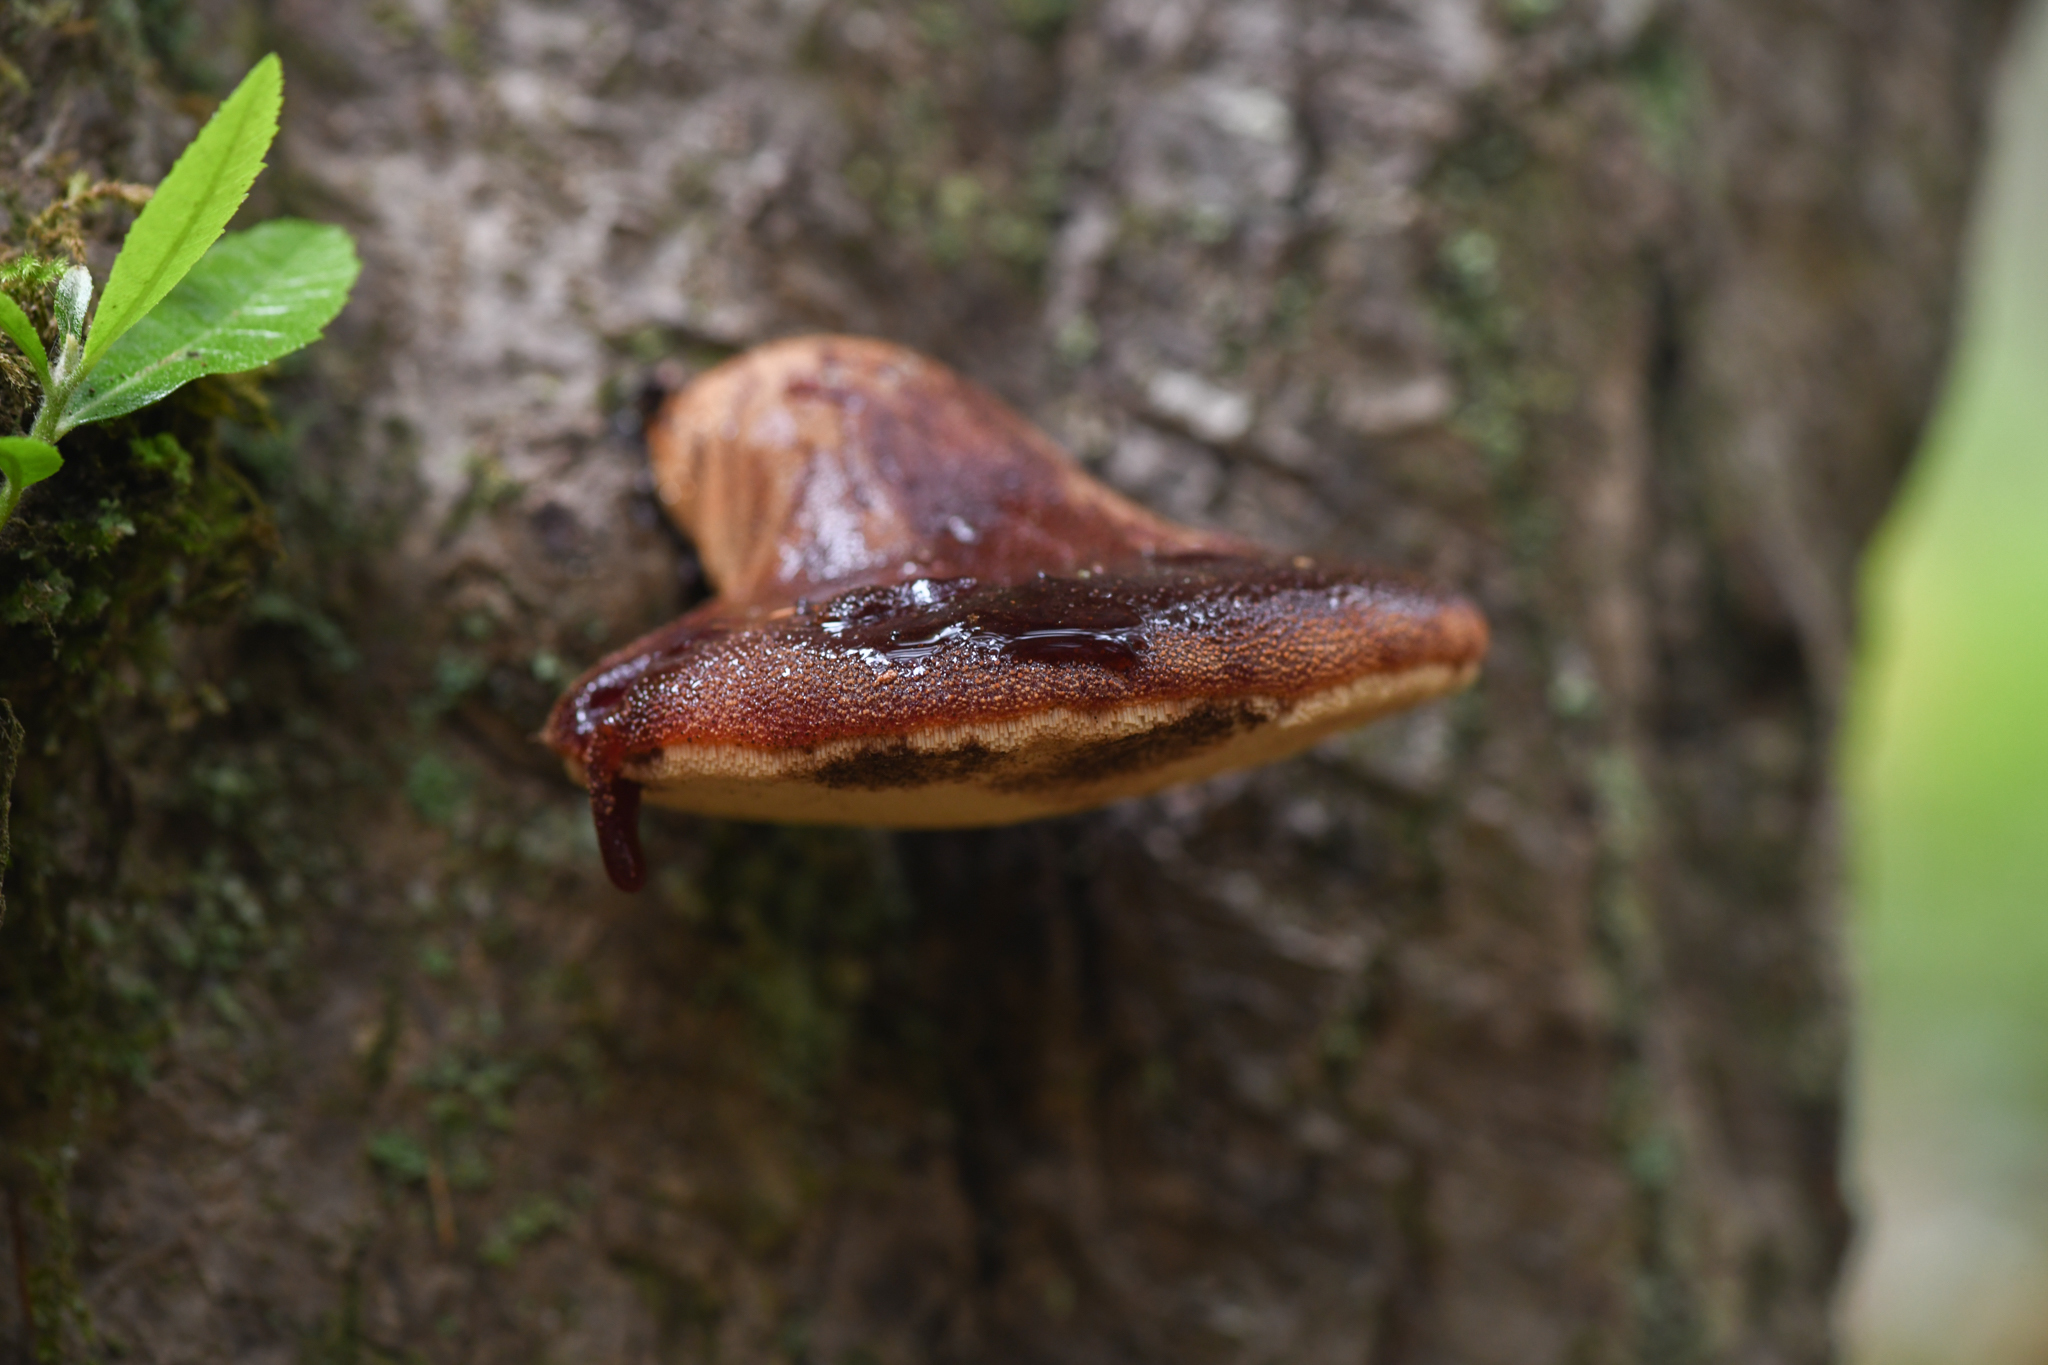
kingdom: Fungi
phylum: Basidiomycota
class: Agaricomycetes
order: Agaricales
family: Fistulinaceae
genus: Fistulina
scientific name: Fistulina hepatica
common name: Beef-steak fungus
